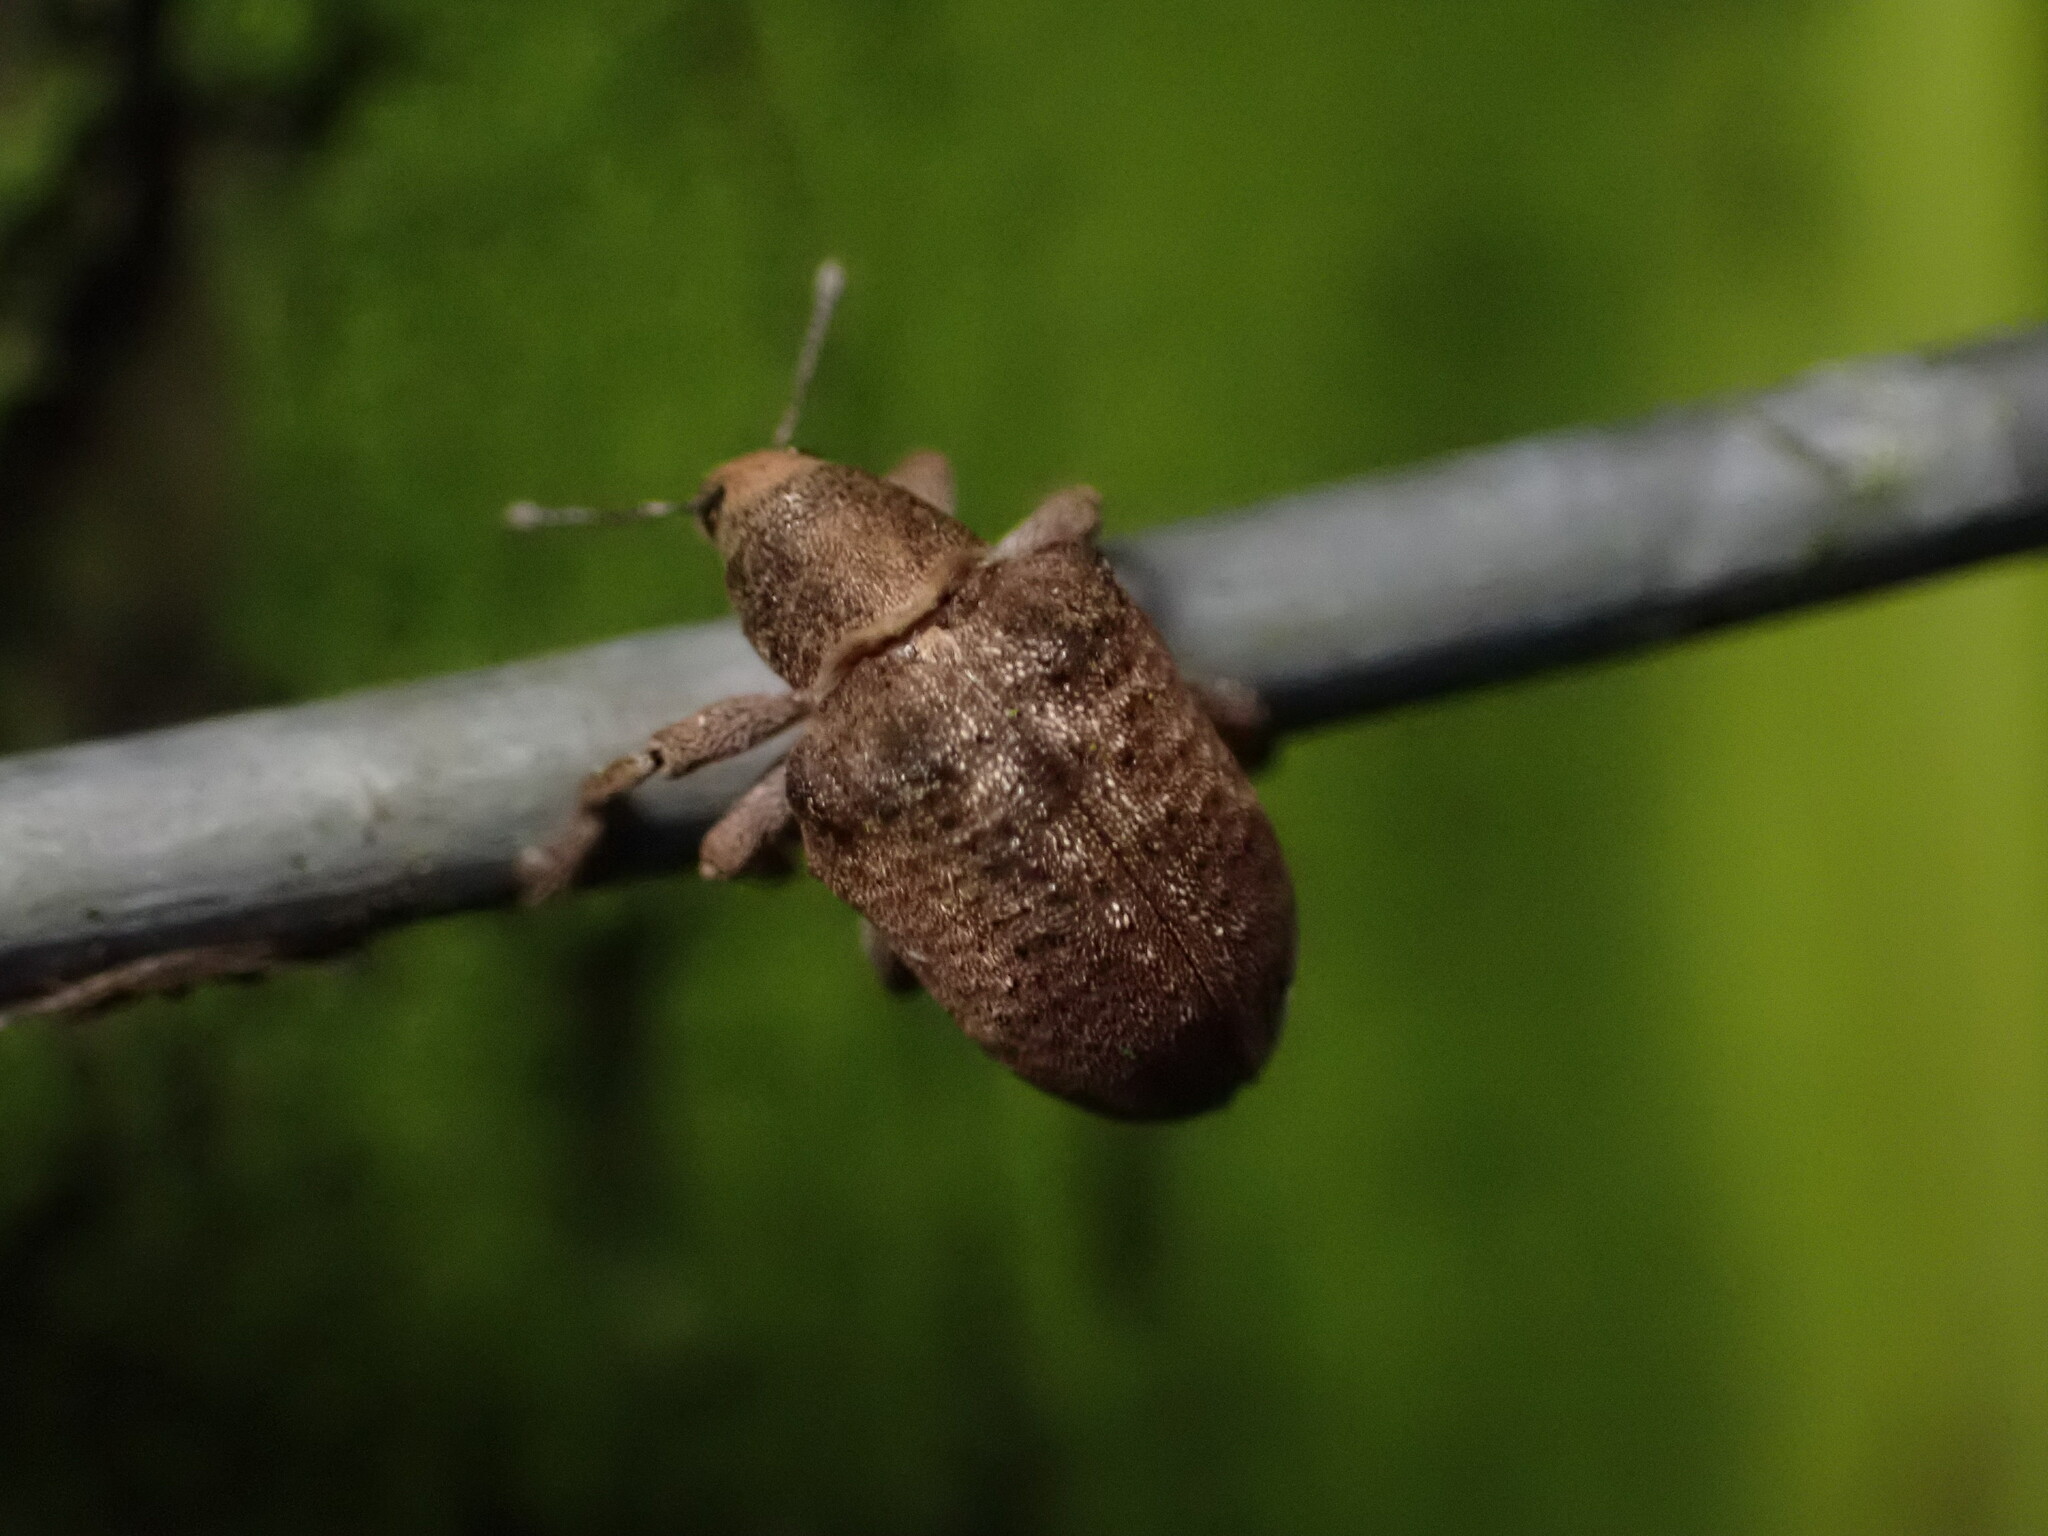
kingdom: Animalia
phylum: Arthropoda
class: Insecta
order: Coleoptera
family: Curculionidae
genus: Gonipterus
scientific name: Gonipterus platensis
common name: Eucalyptus snout beetle
